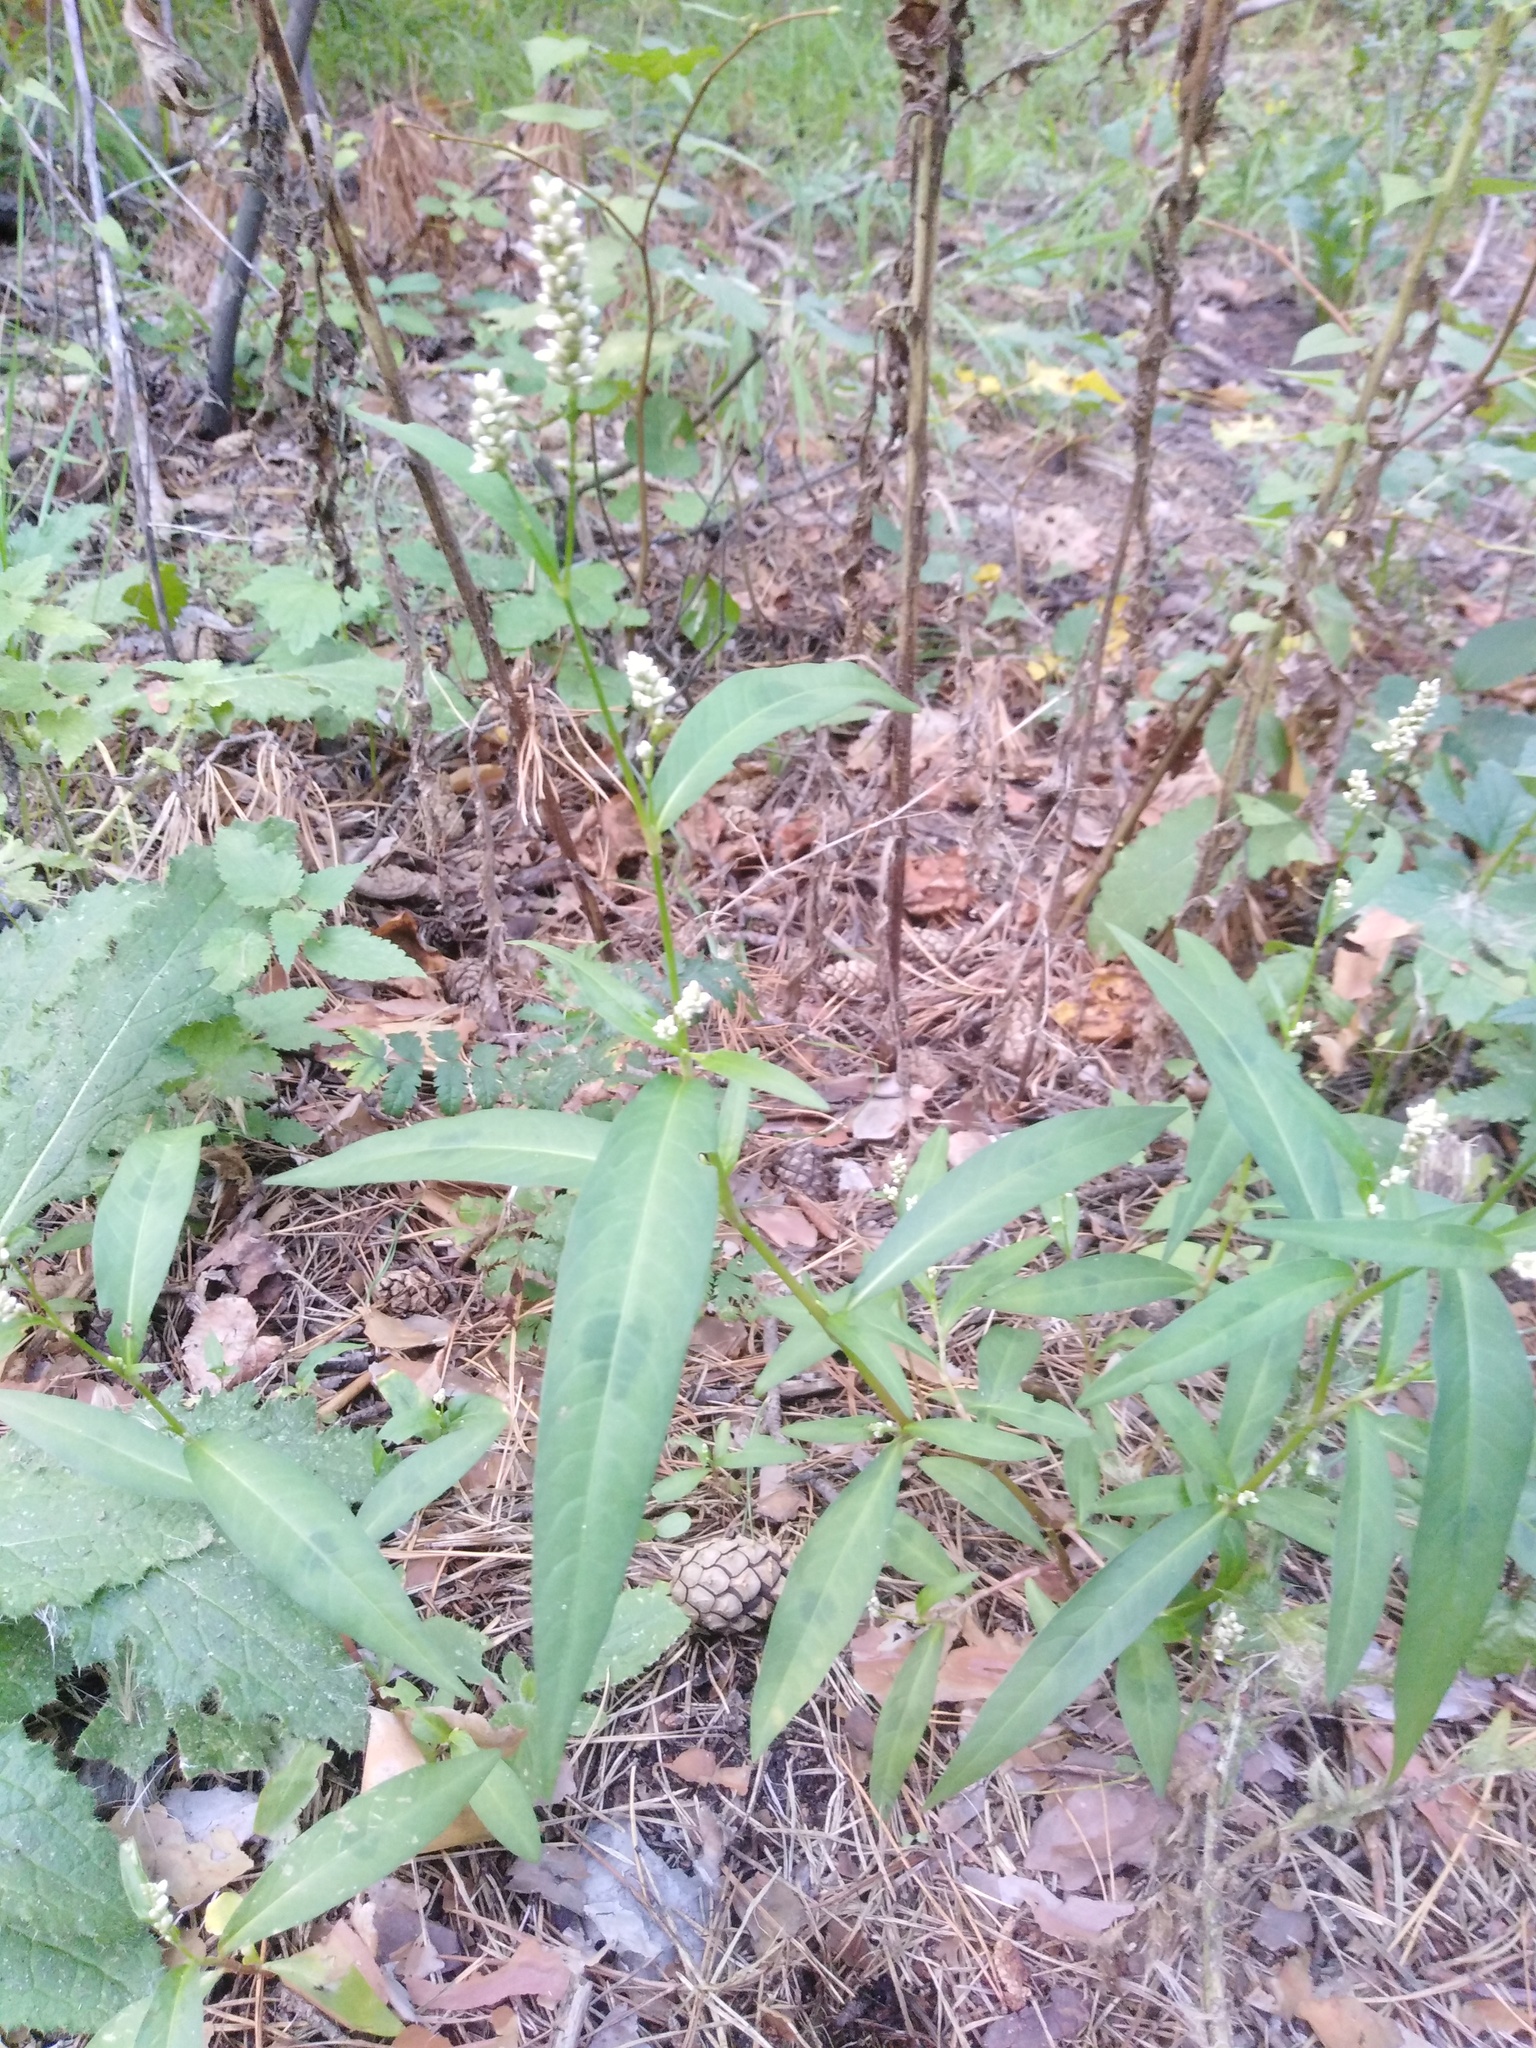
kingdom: Plantae
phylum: Tracheophyta
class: Magnoliopsida
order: Caryophyllales
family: Polygonaceae
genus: Persicaria
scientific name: Persicaria maculosa
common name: Redshank
